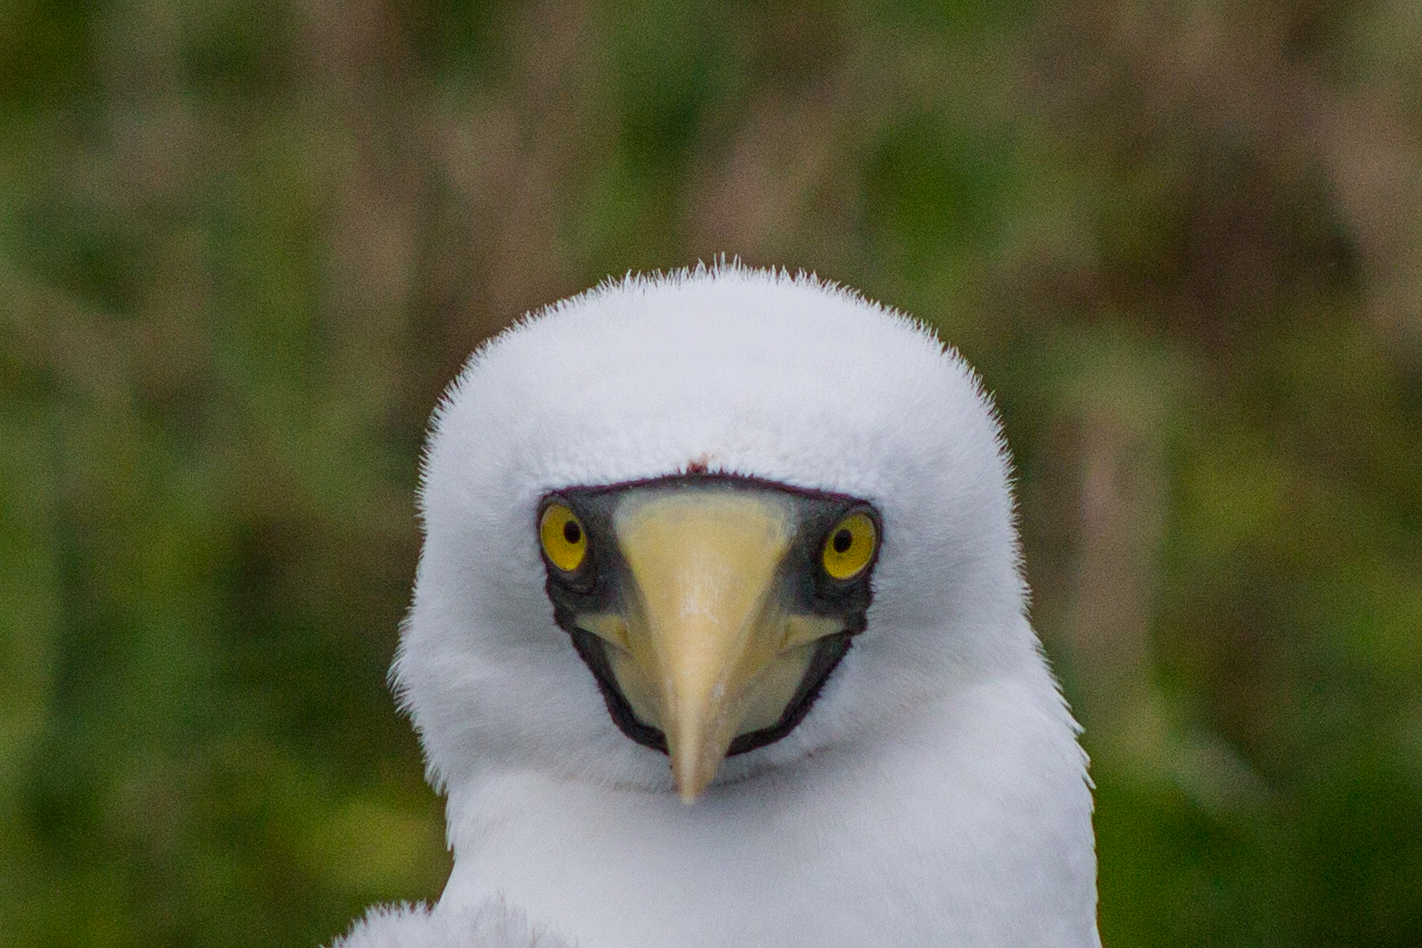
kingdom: Animalia
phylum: Chordata
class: Aves
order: Suliformes
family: Sulidae
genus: Sula
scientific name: Sula dactylatra
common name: Masked booby
